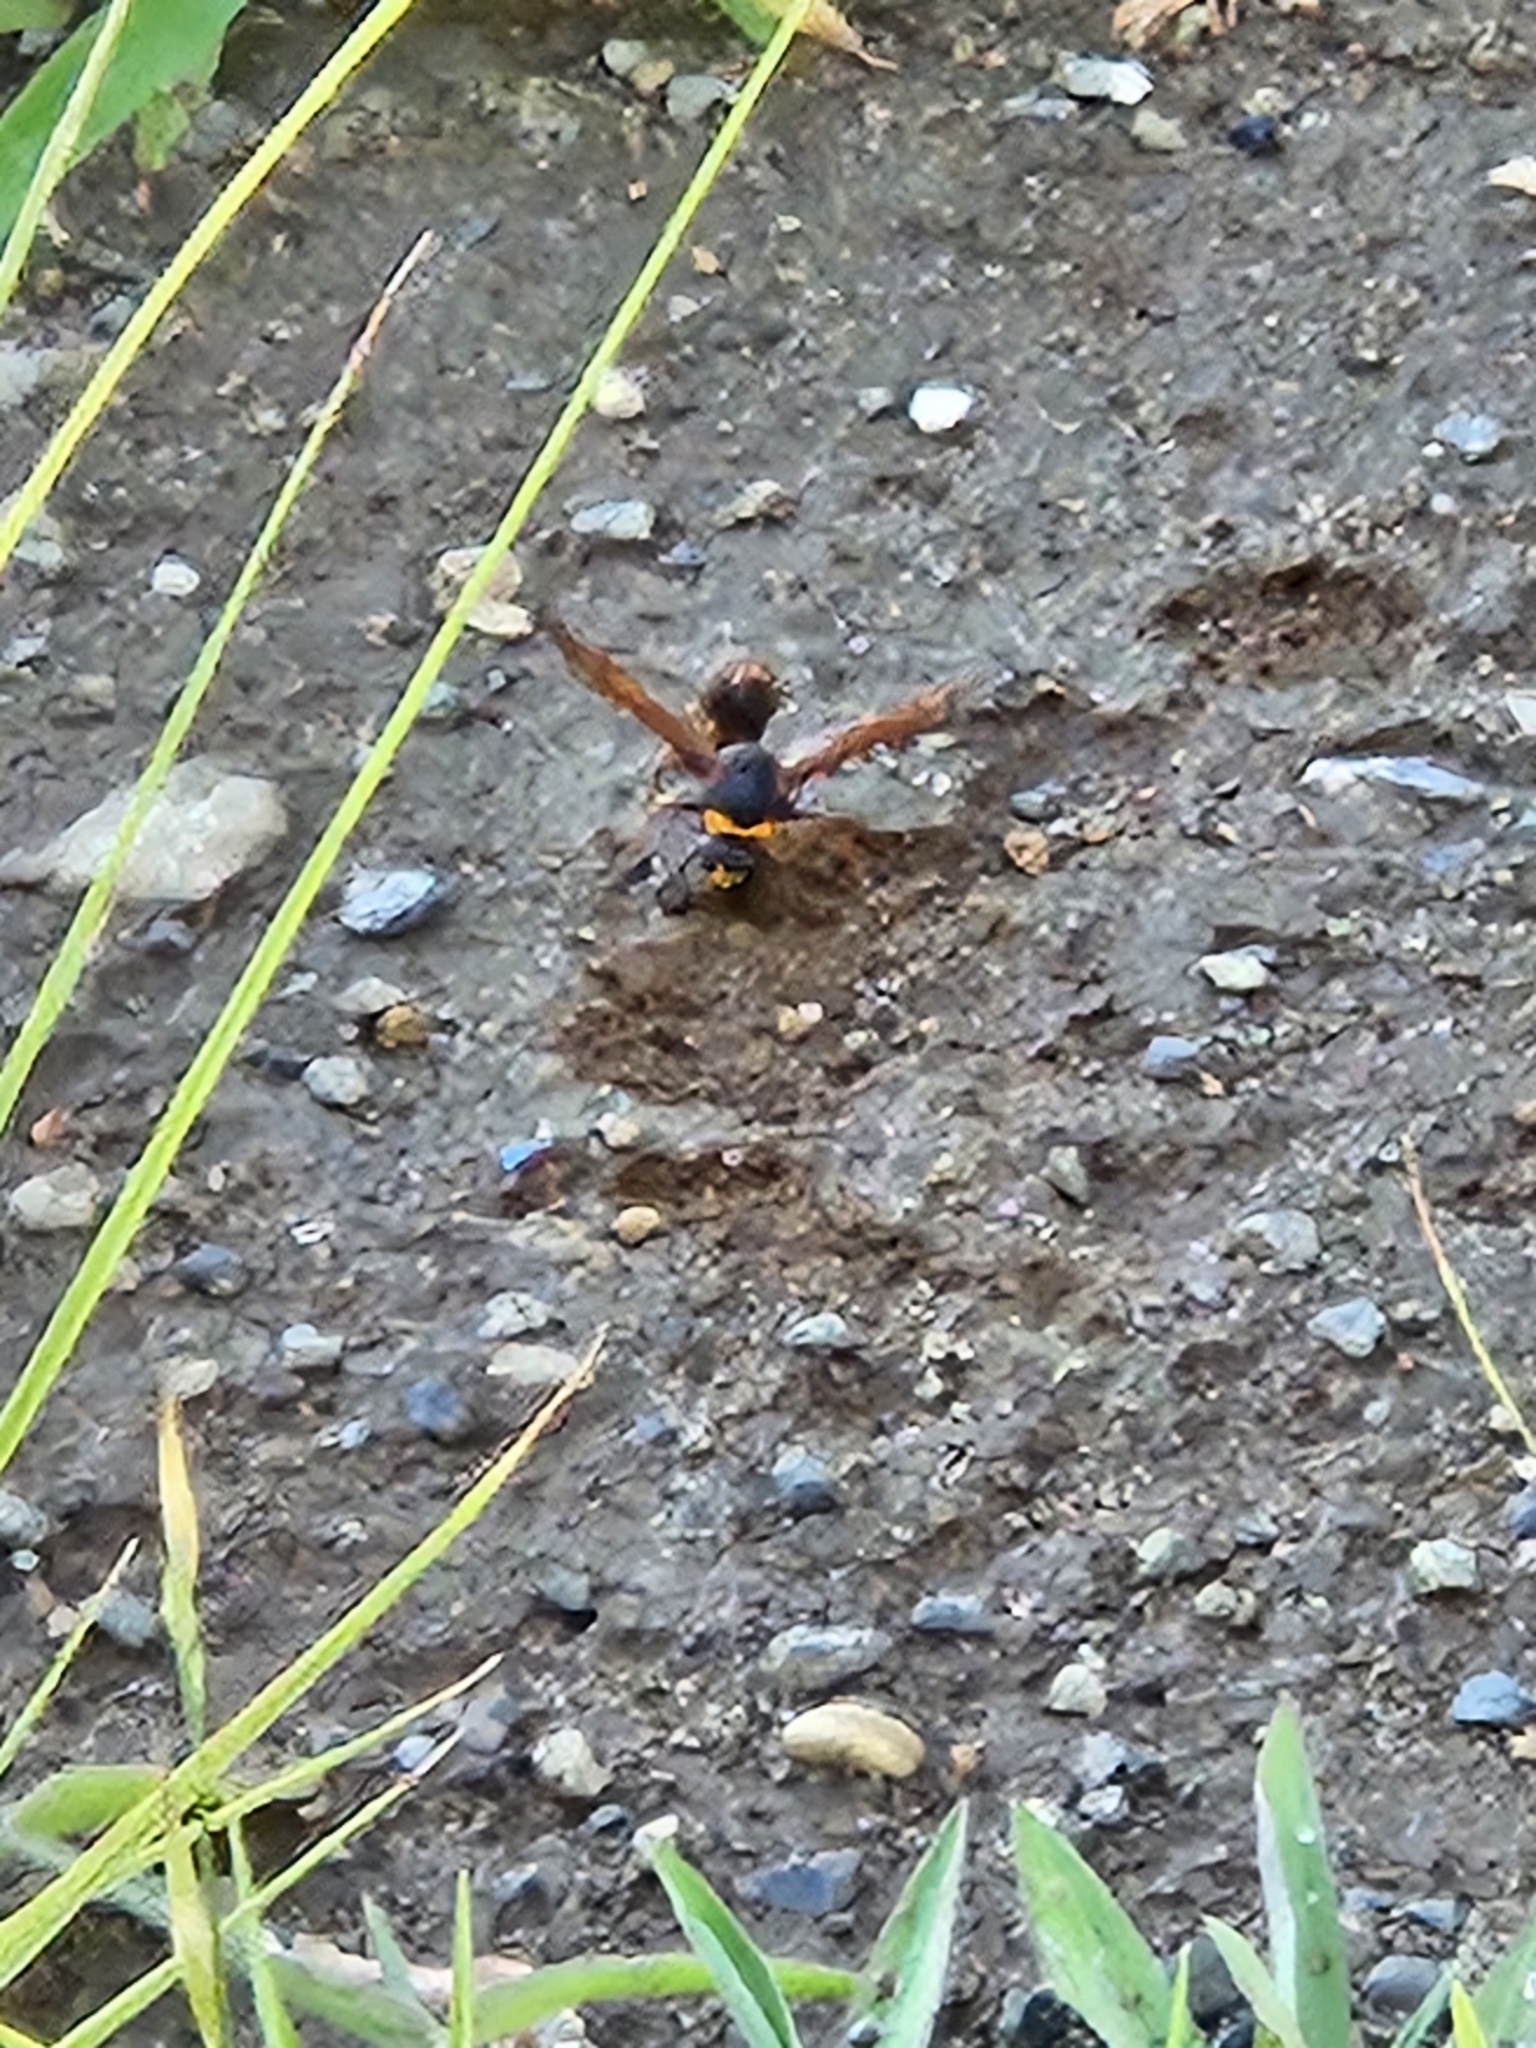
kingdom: Animalia
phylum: Arthropoda
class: Insecta
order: Hymenoptera
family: Eumenidae
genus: Oreumenes
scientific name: Oreumenes decoratus
